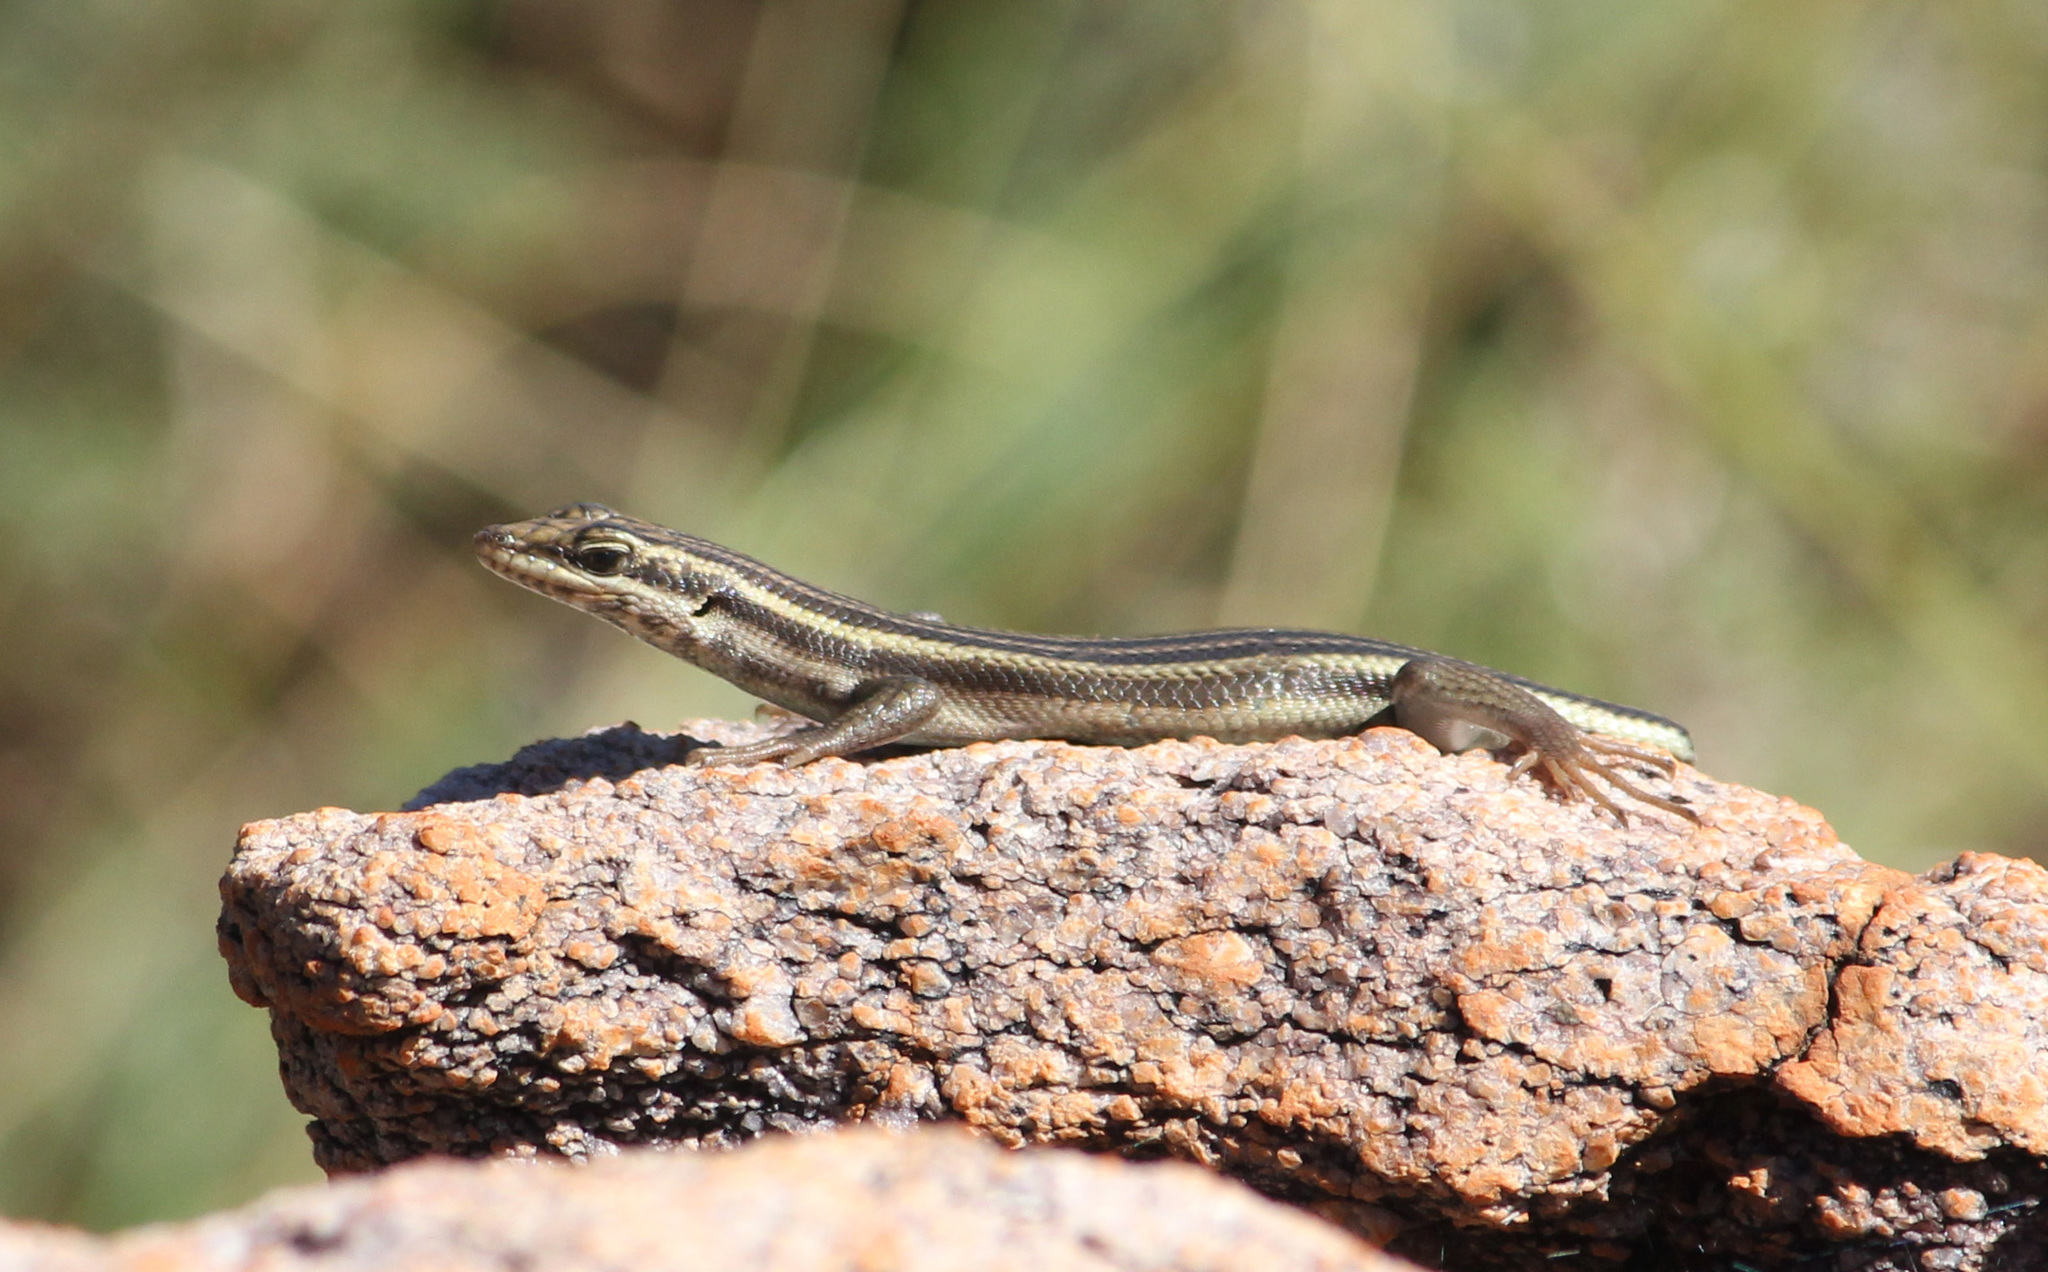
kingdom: Animalia
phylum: Chordata
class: Squamata
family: Scincidae
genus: Trachylepis
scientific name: Trachylepis sulcata
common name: Western rock skink
